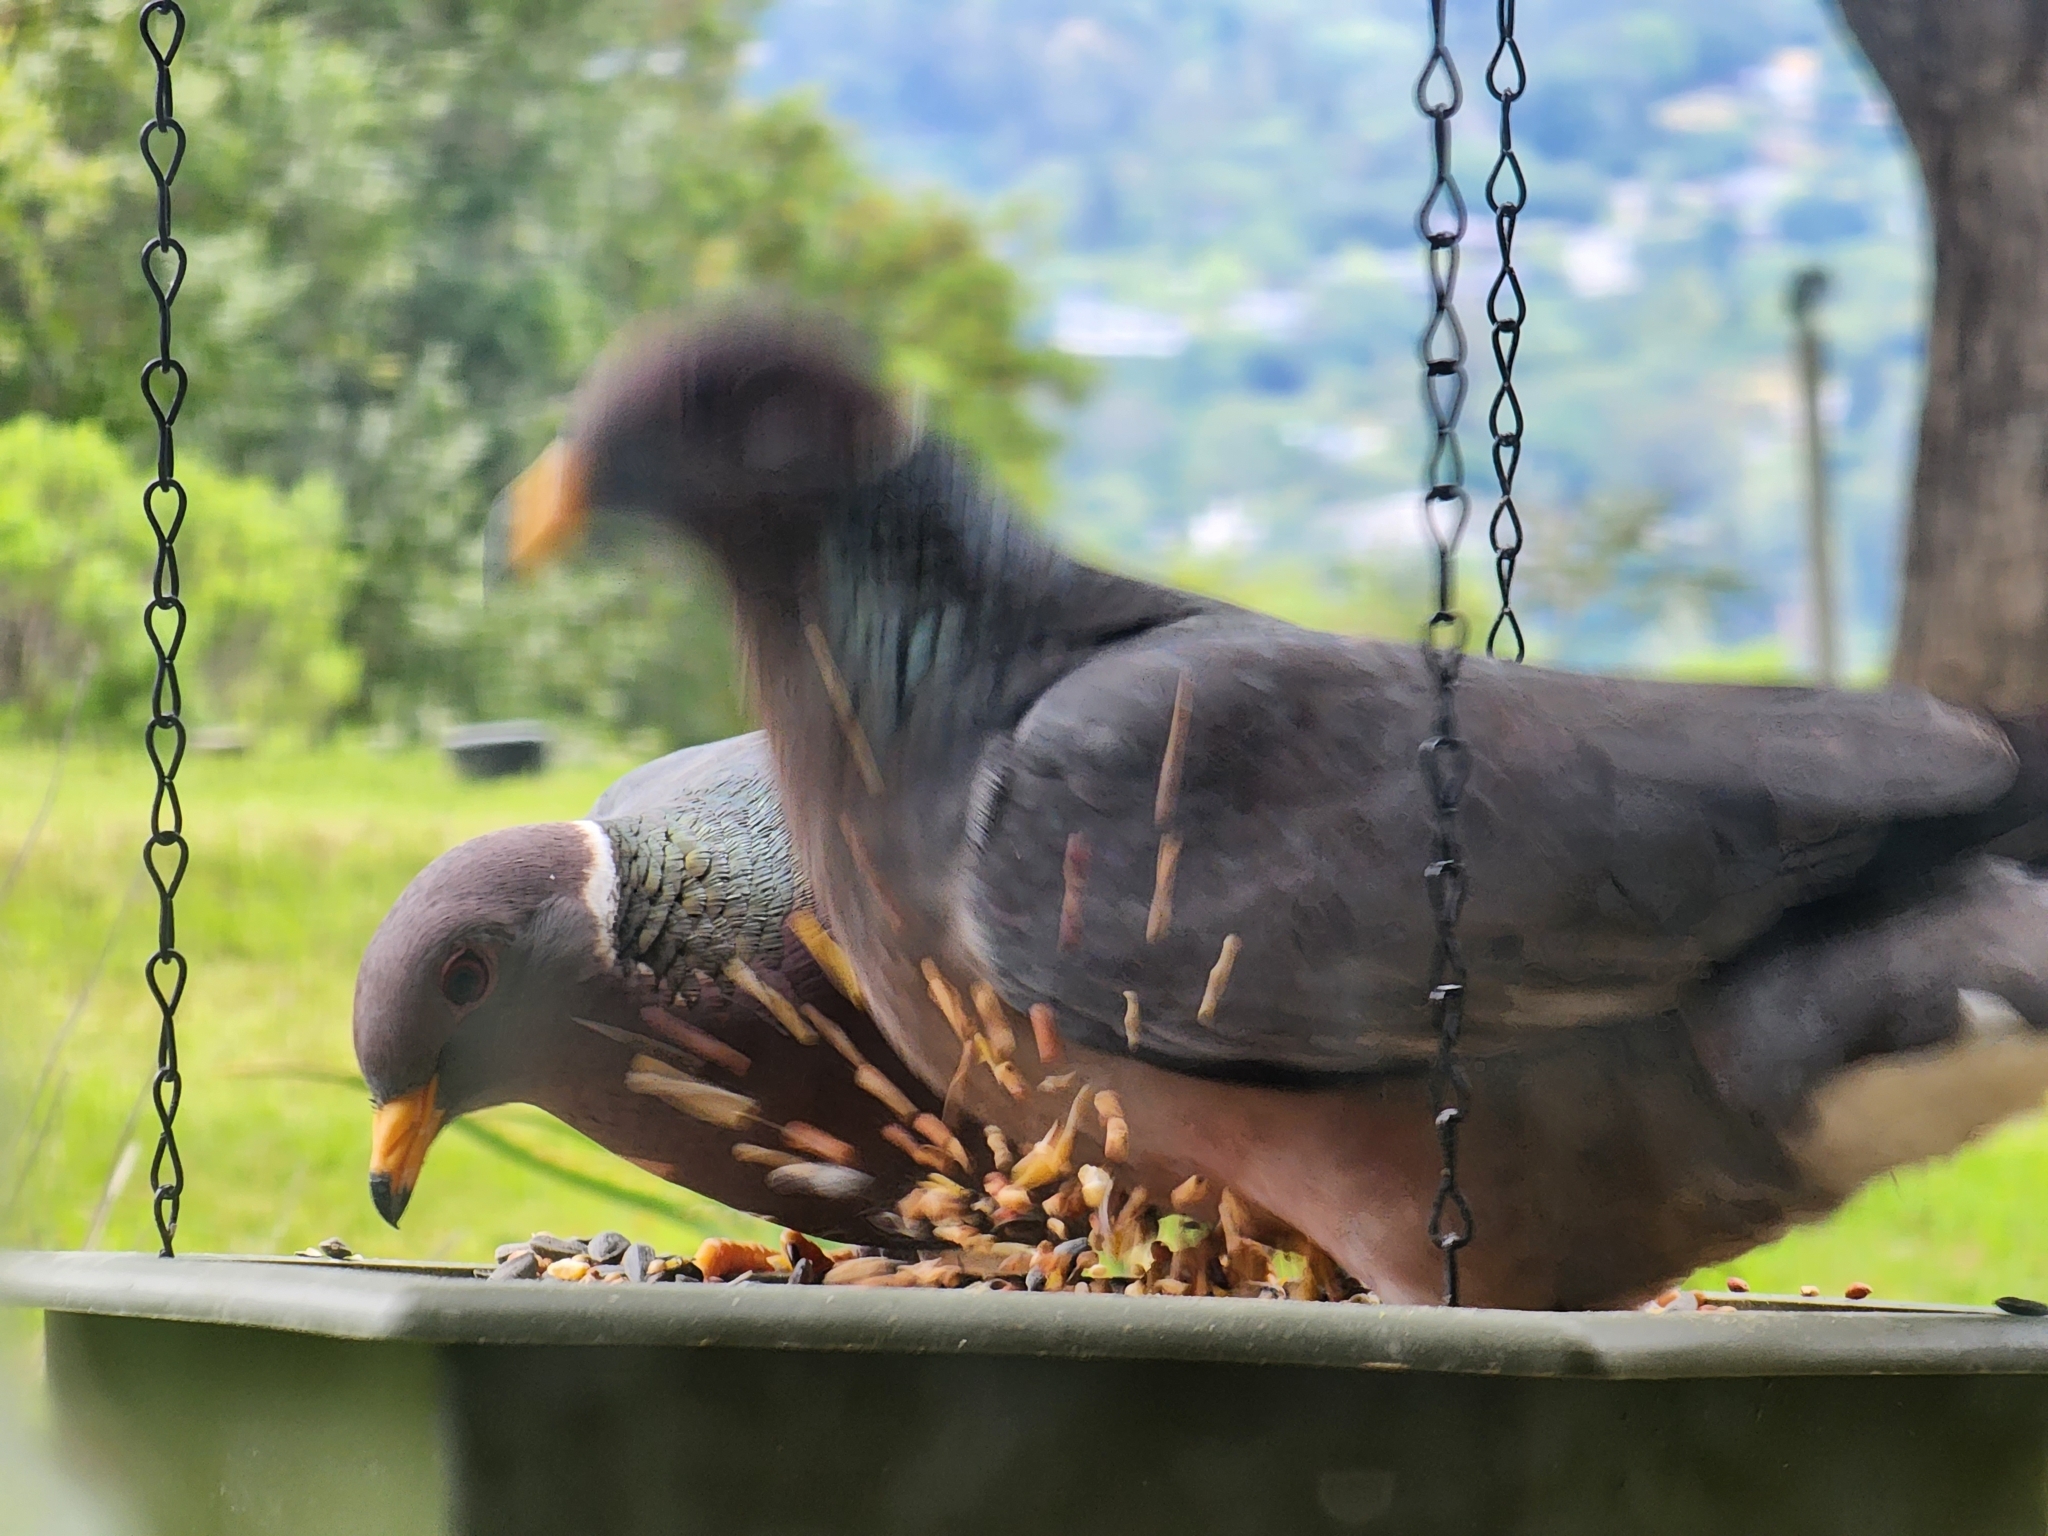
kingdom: Animalia
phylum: Chordata
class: Aves
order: Columbiformes
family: Columbidae
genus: Patagioenas
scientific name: Patagioenas fasciata
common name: Band-tailed pigeon
